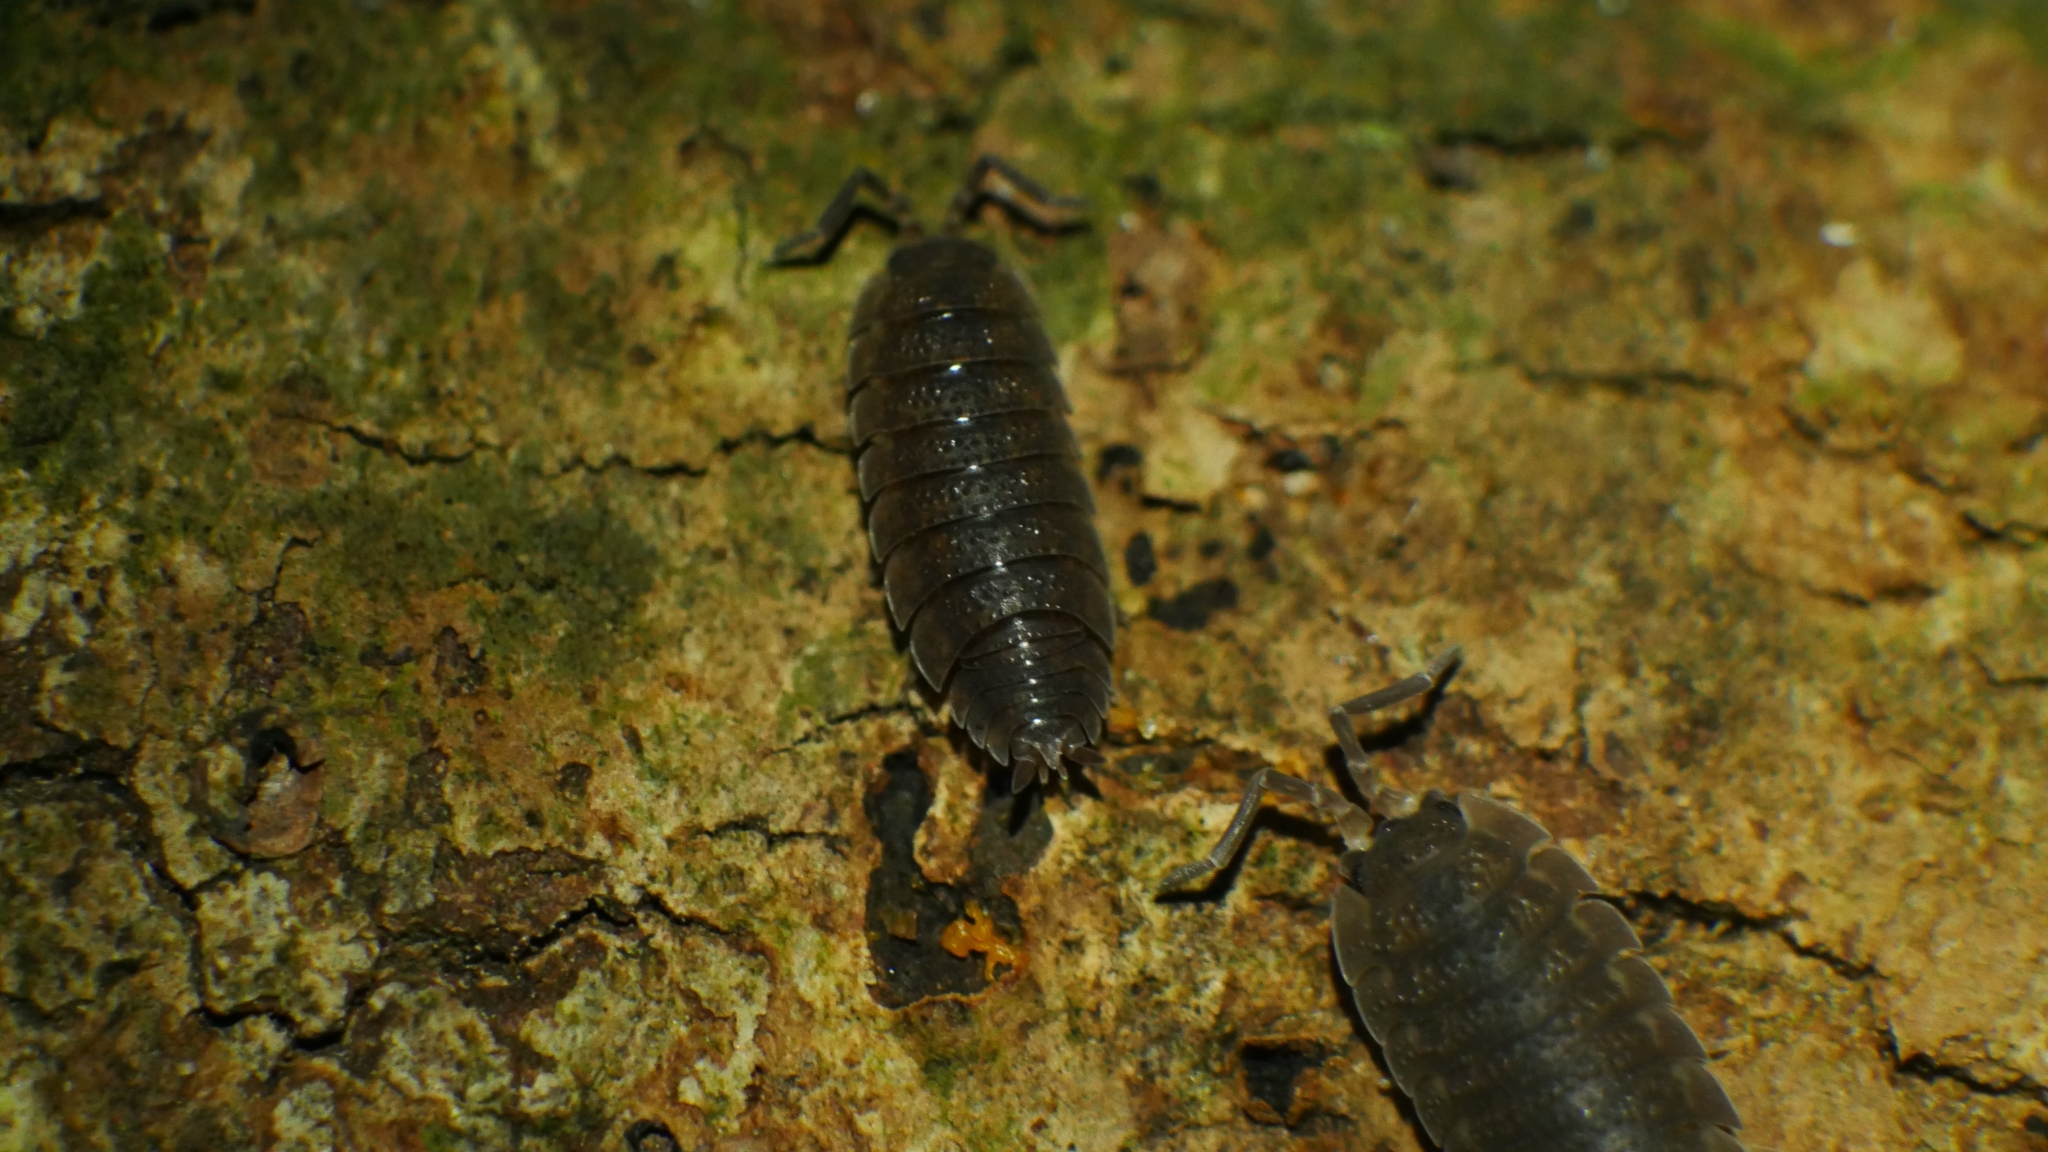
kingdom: Animalia
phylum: Arthropoda
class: Malacostraca
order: Isopoda
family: Porcellionidae
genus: Porcellio
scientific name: Porcellio scaber
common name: Common rough woodlouse
